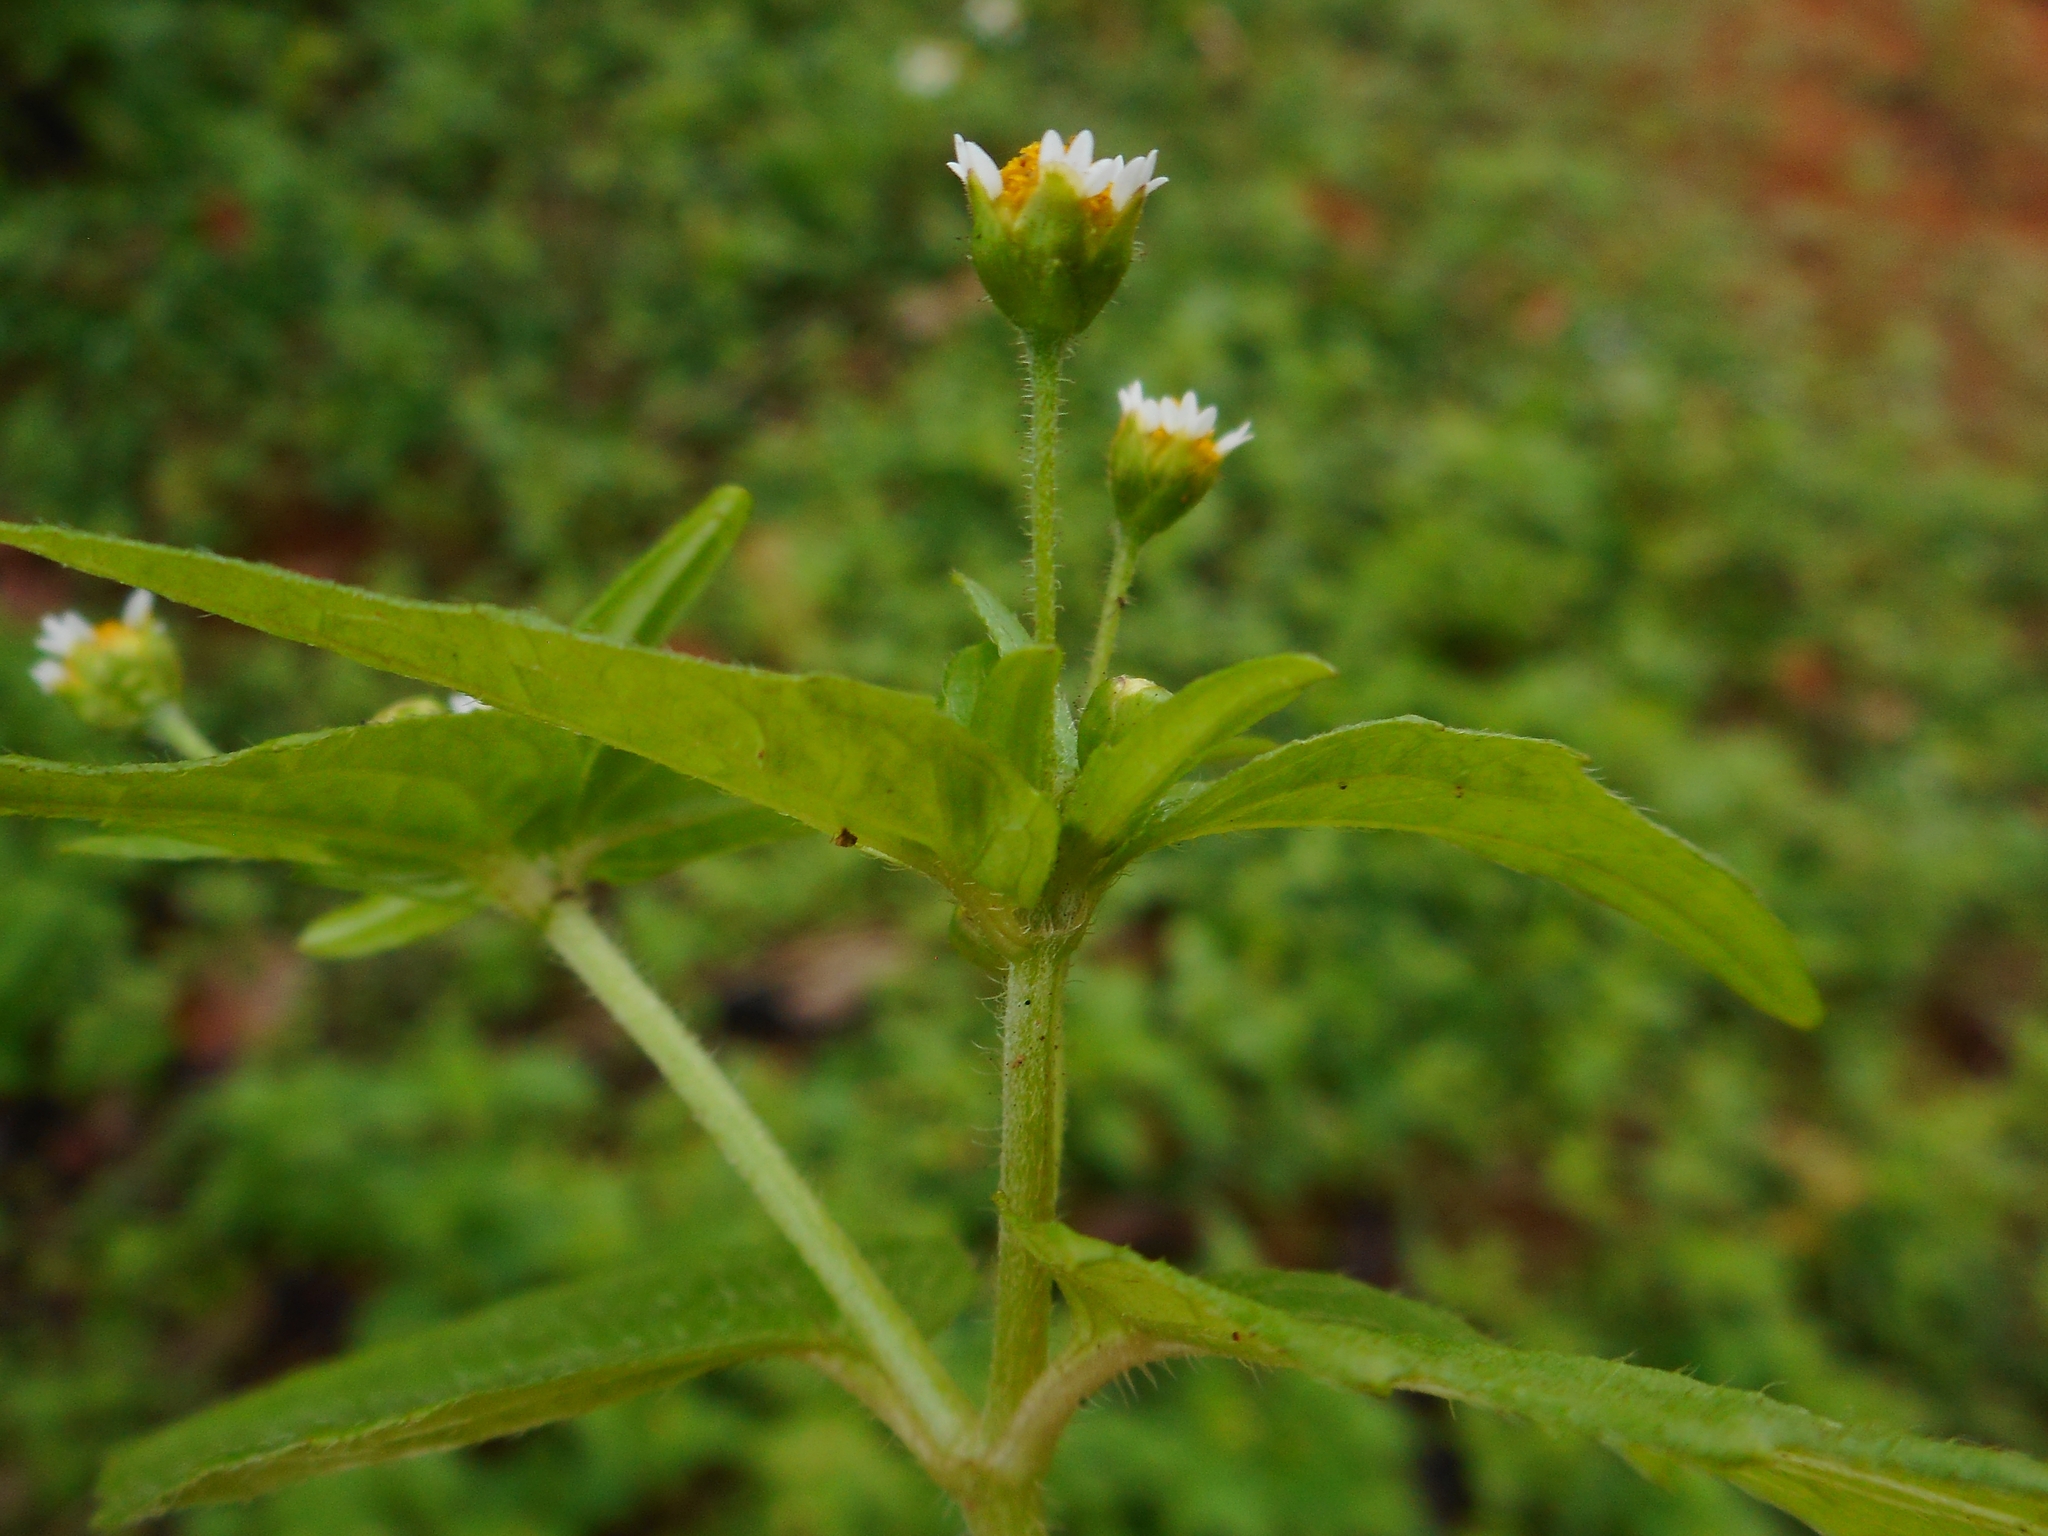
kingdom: Plantae
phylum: Tracheophyta
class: Magnoliopsida
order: Asterales
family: Asteraceae
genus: Galinsoga
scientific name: Galinsoga parviflora
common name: Gallant soldier
